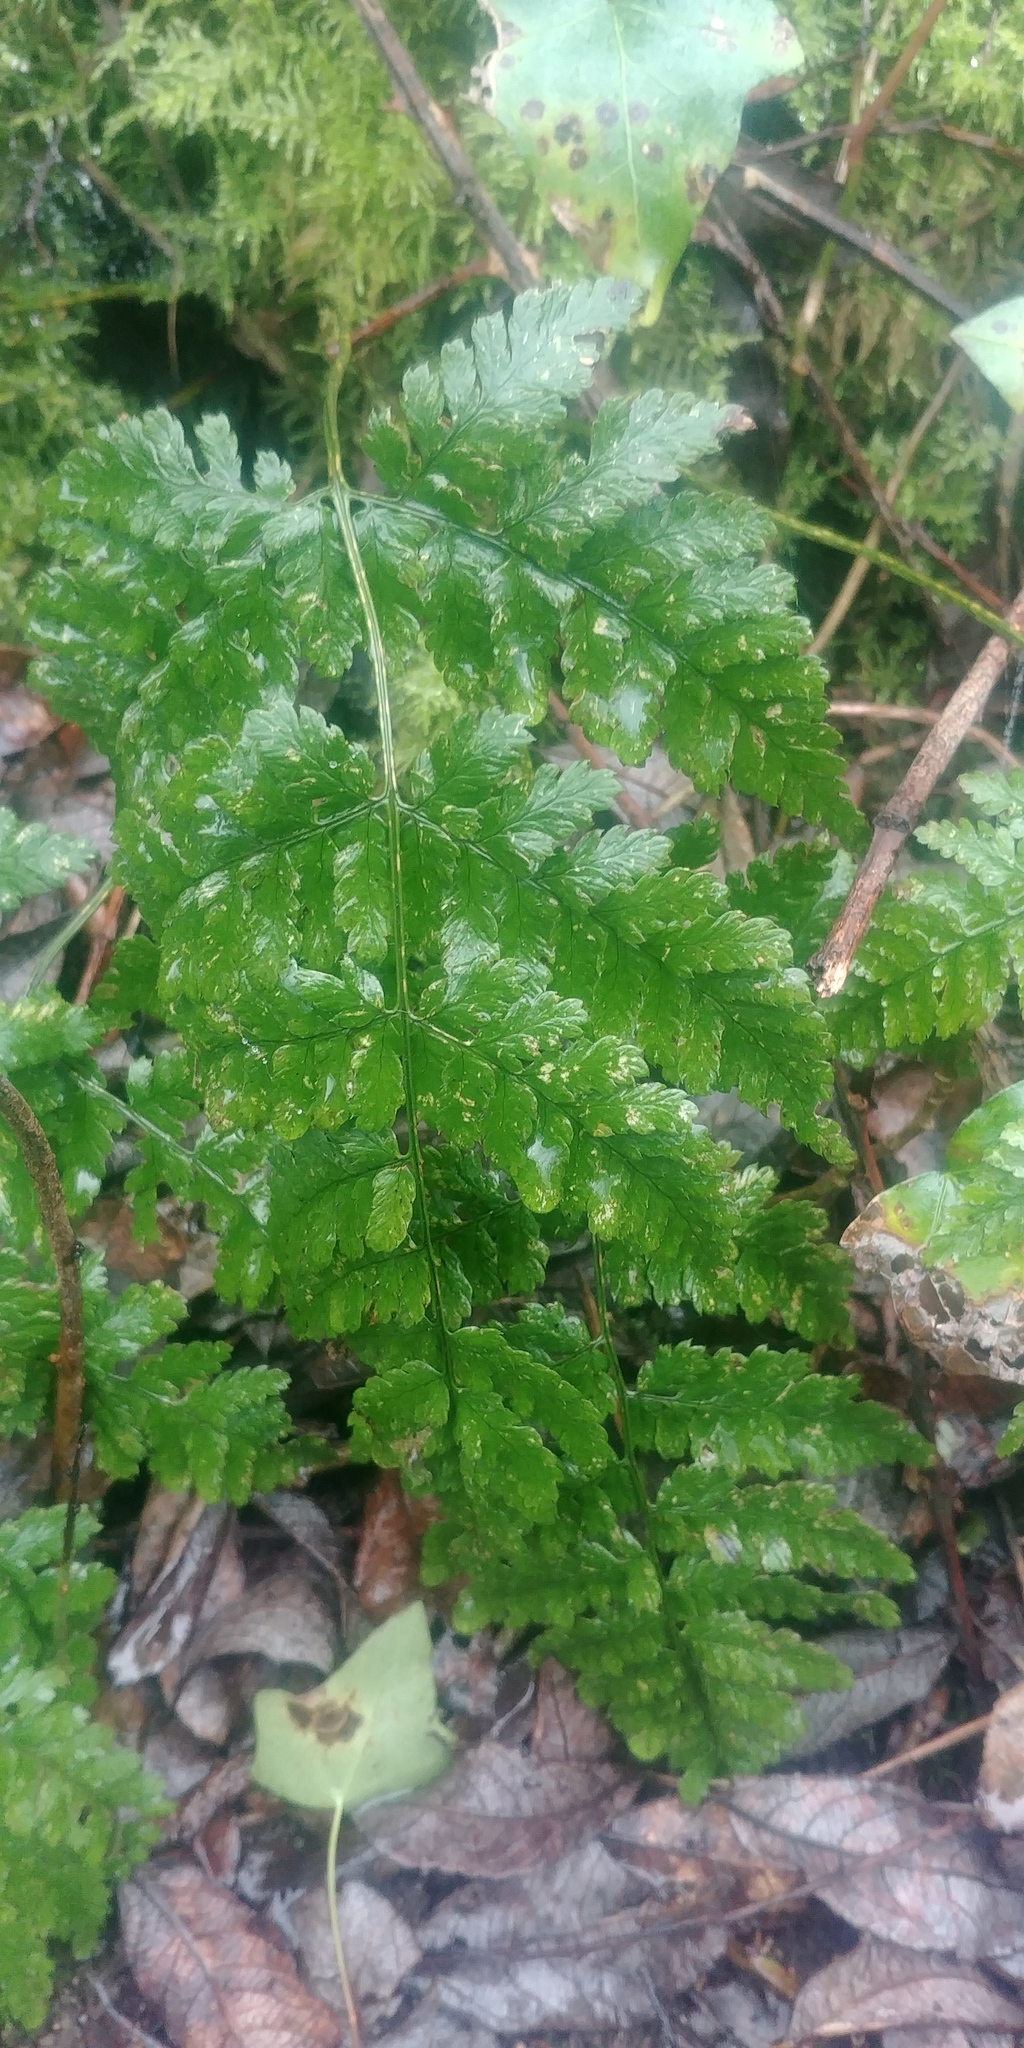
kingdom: Plantae
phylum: Tracheophyta
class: Polypodiopsida
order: Polypodiales
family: Dryopteridaceae
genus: Dryopteris
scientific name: Dryopteris
